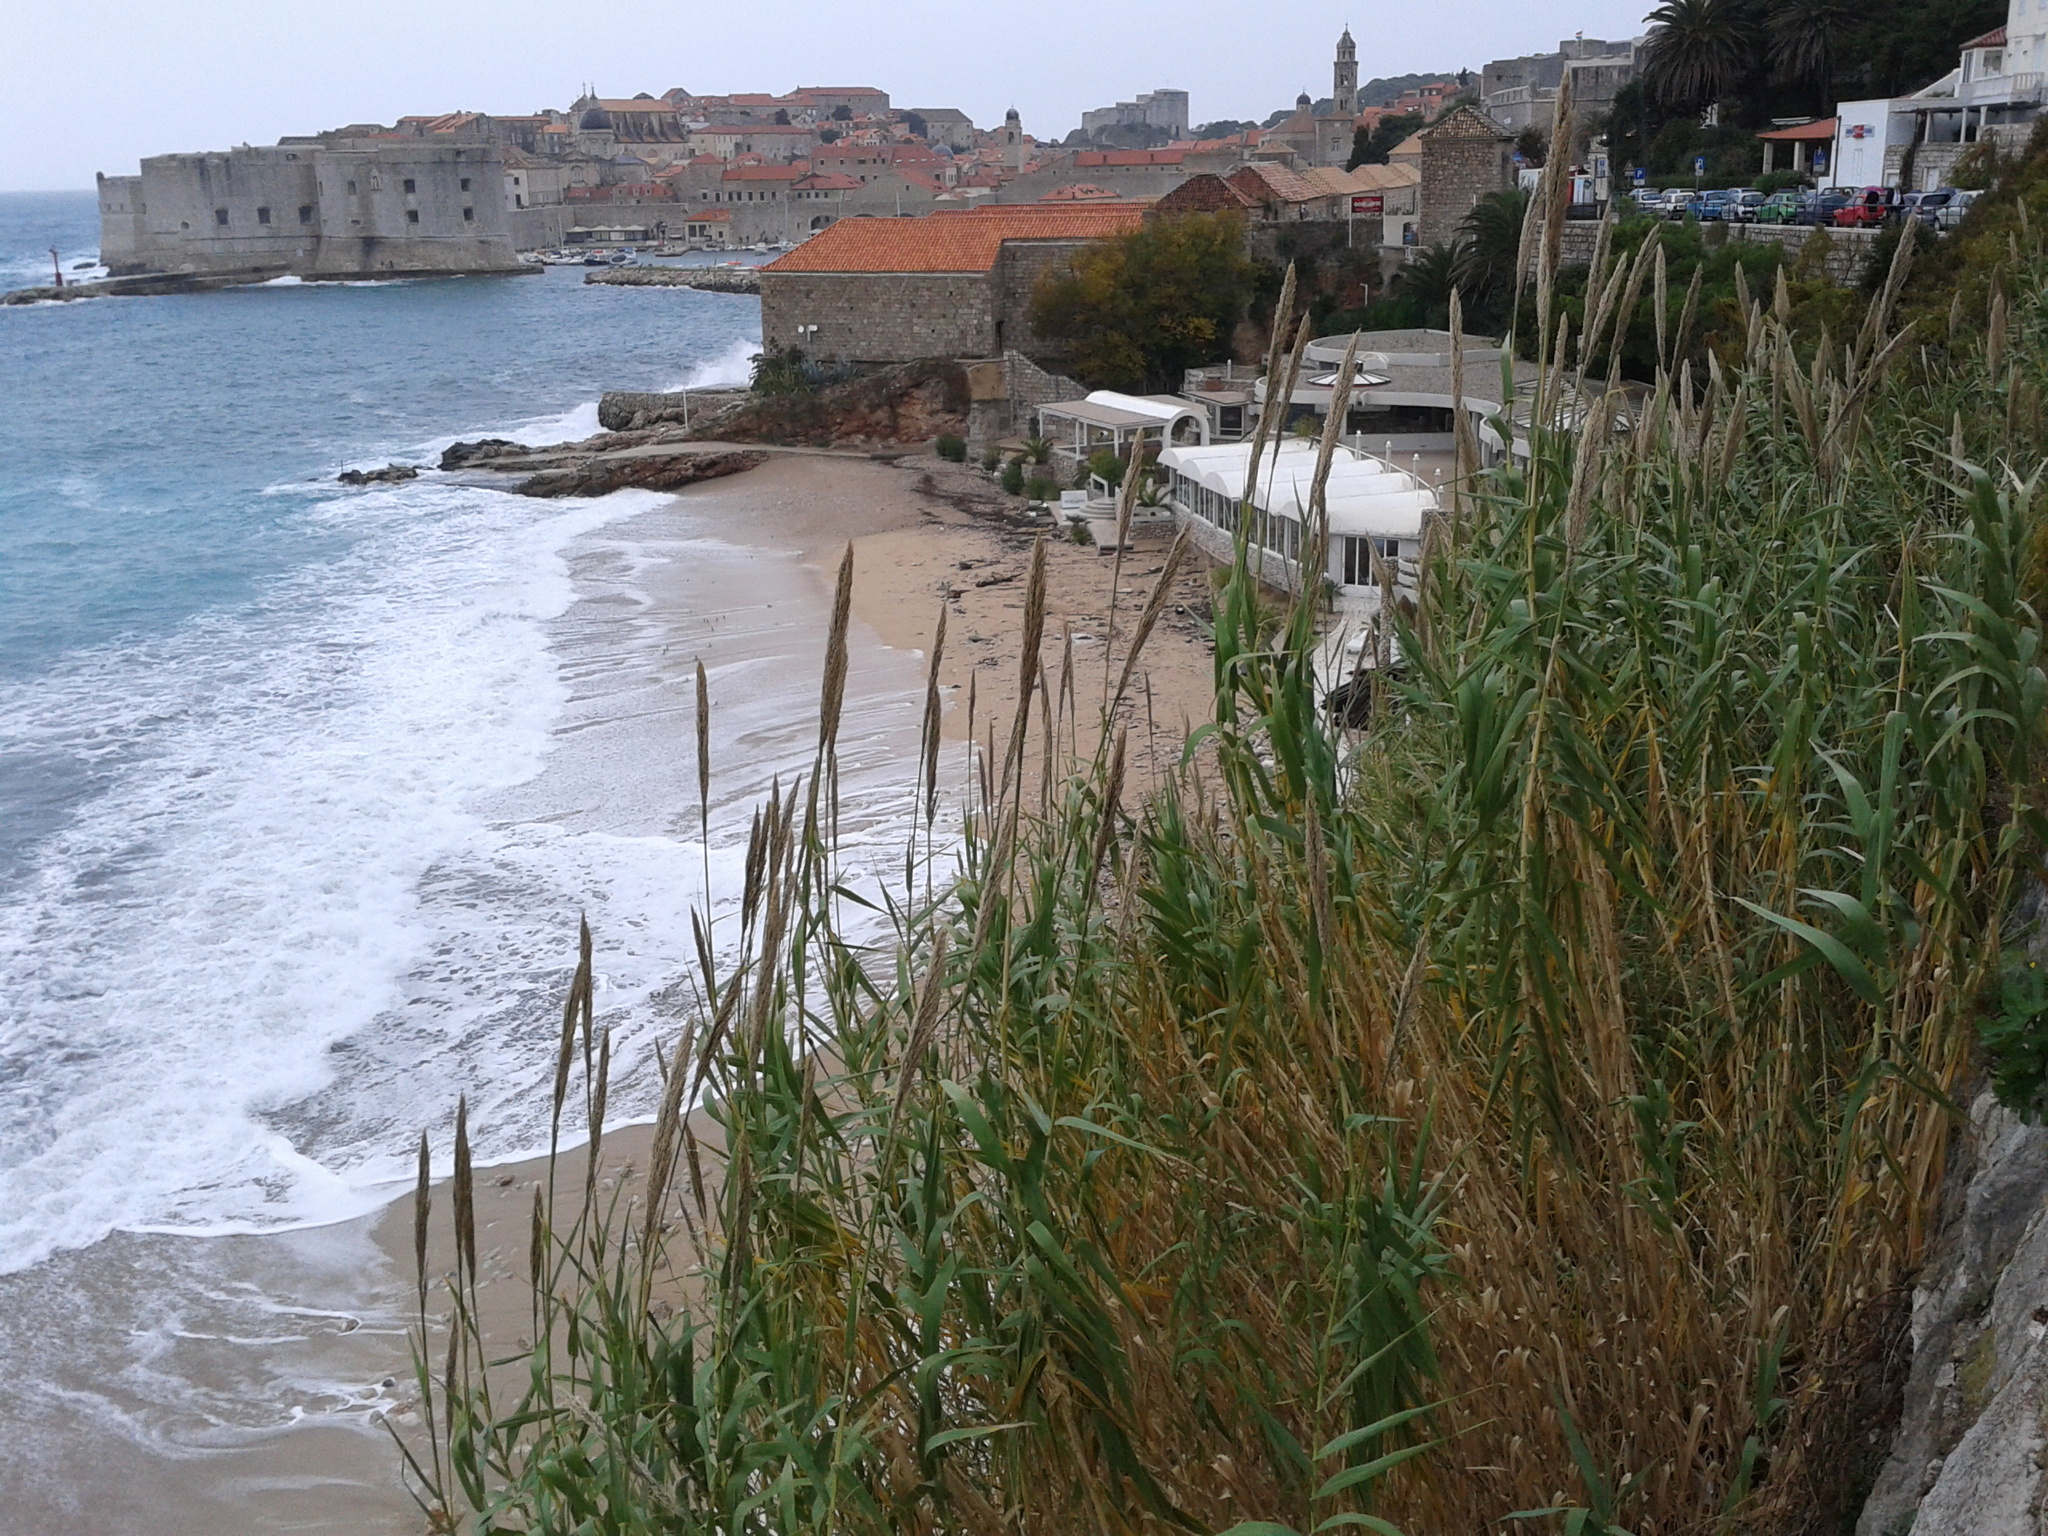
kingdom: Plantae
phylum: Tracheophyta
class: Liliopsida
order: Poales
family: Poaceae
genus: Arundo
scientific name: Arundo donax
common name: Giant reed
